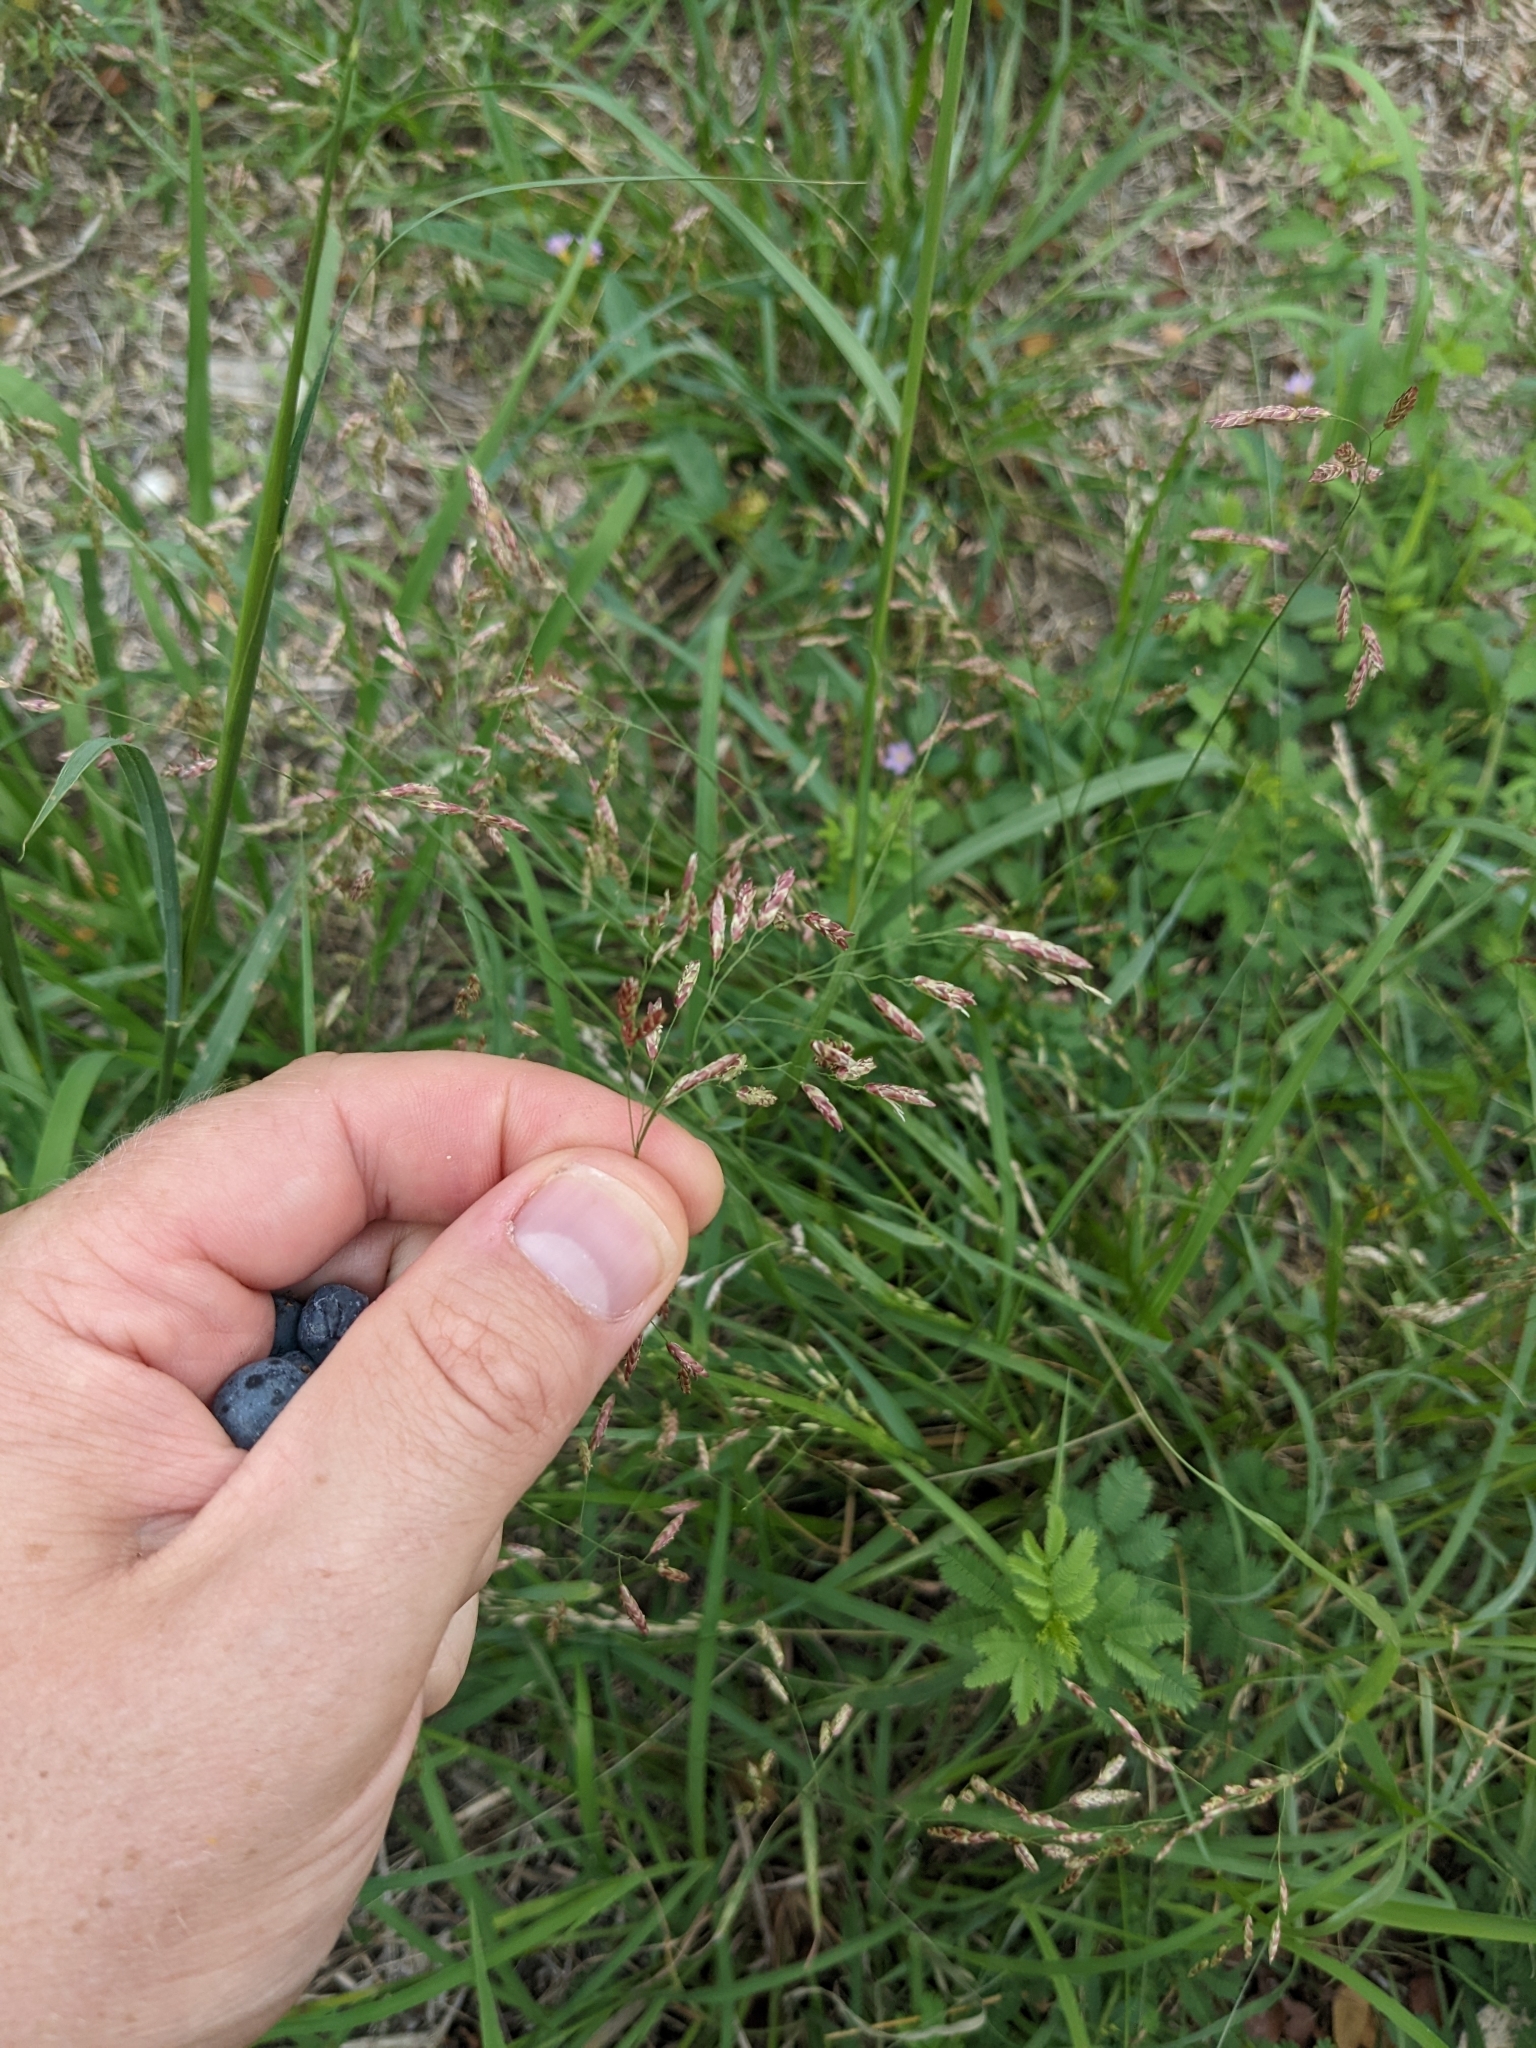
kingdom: Plantae
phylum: Tracheophyta
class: Liliopsida
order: Poales
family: Poaceae
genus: Tridens
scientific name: Tridens texanus
